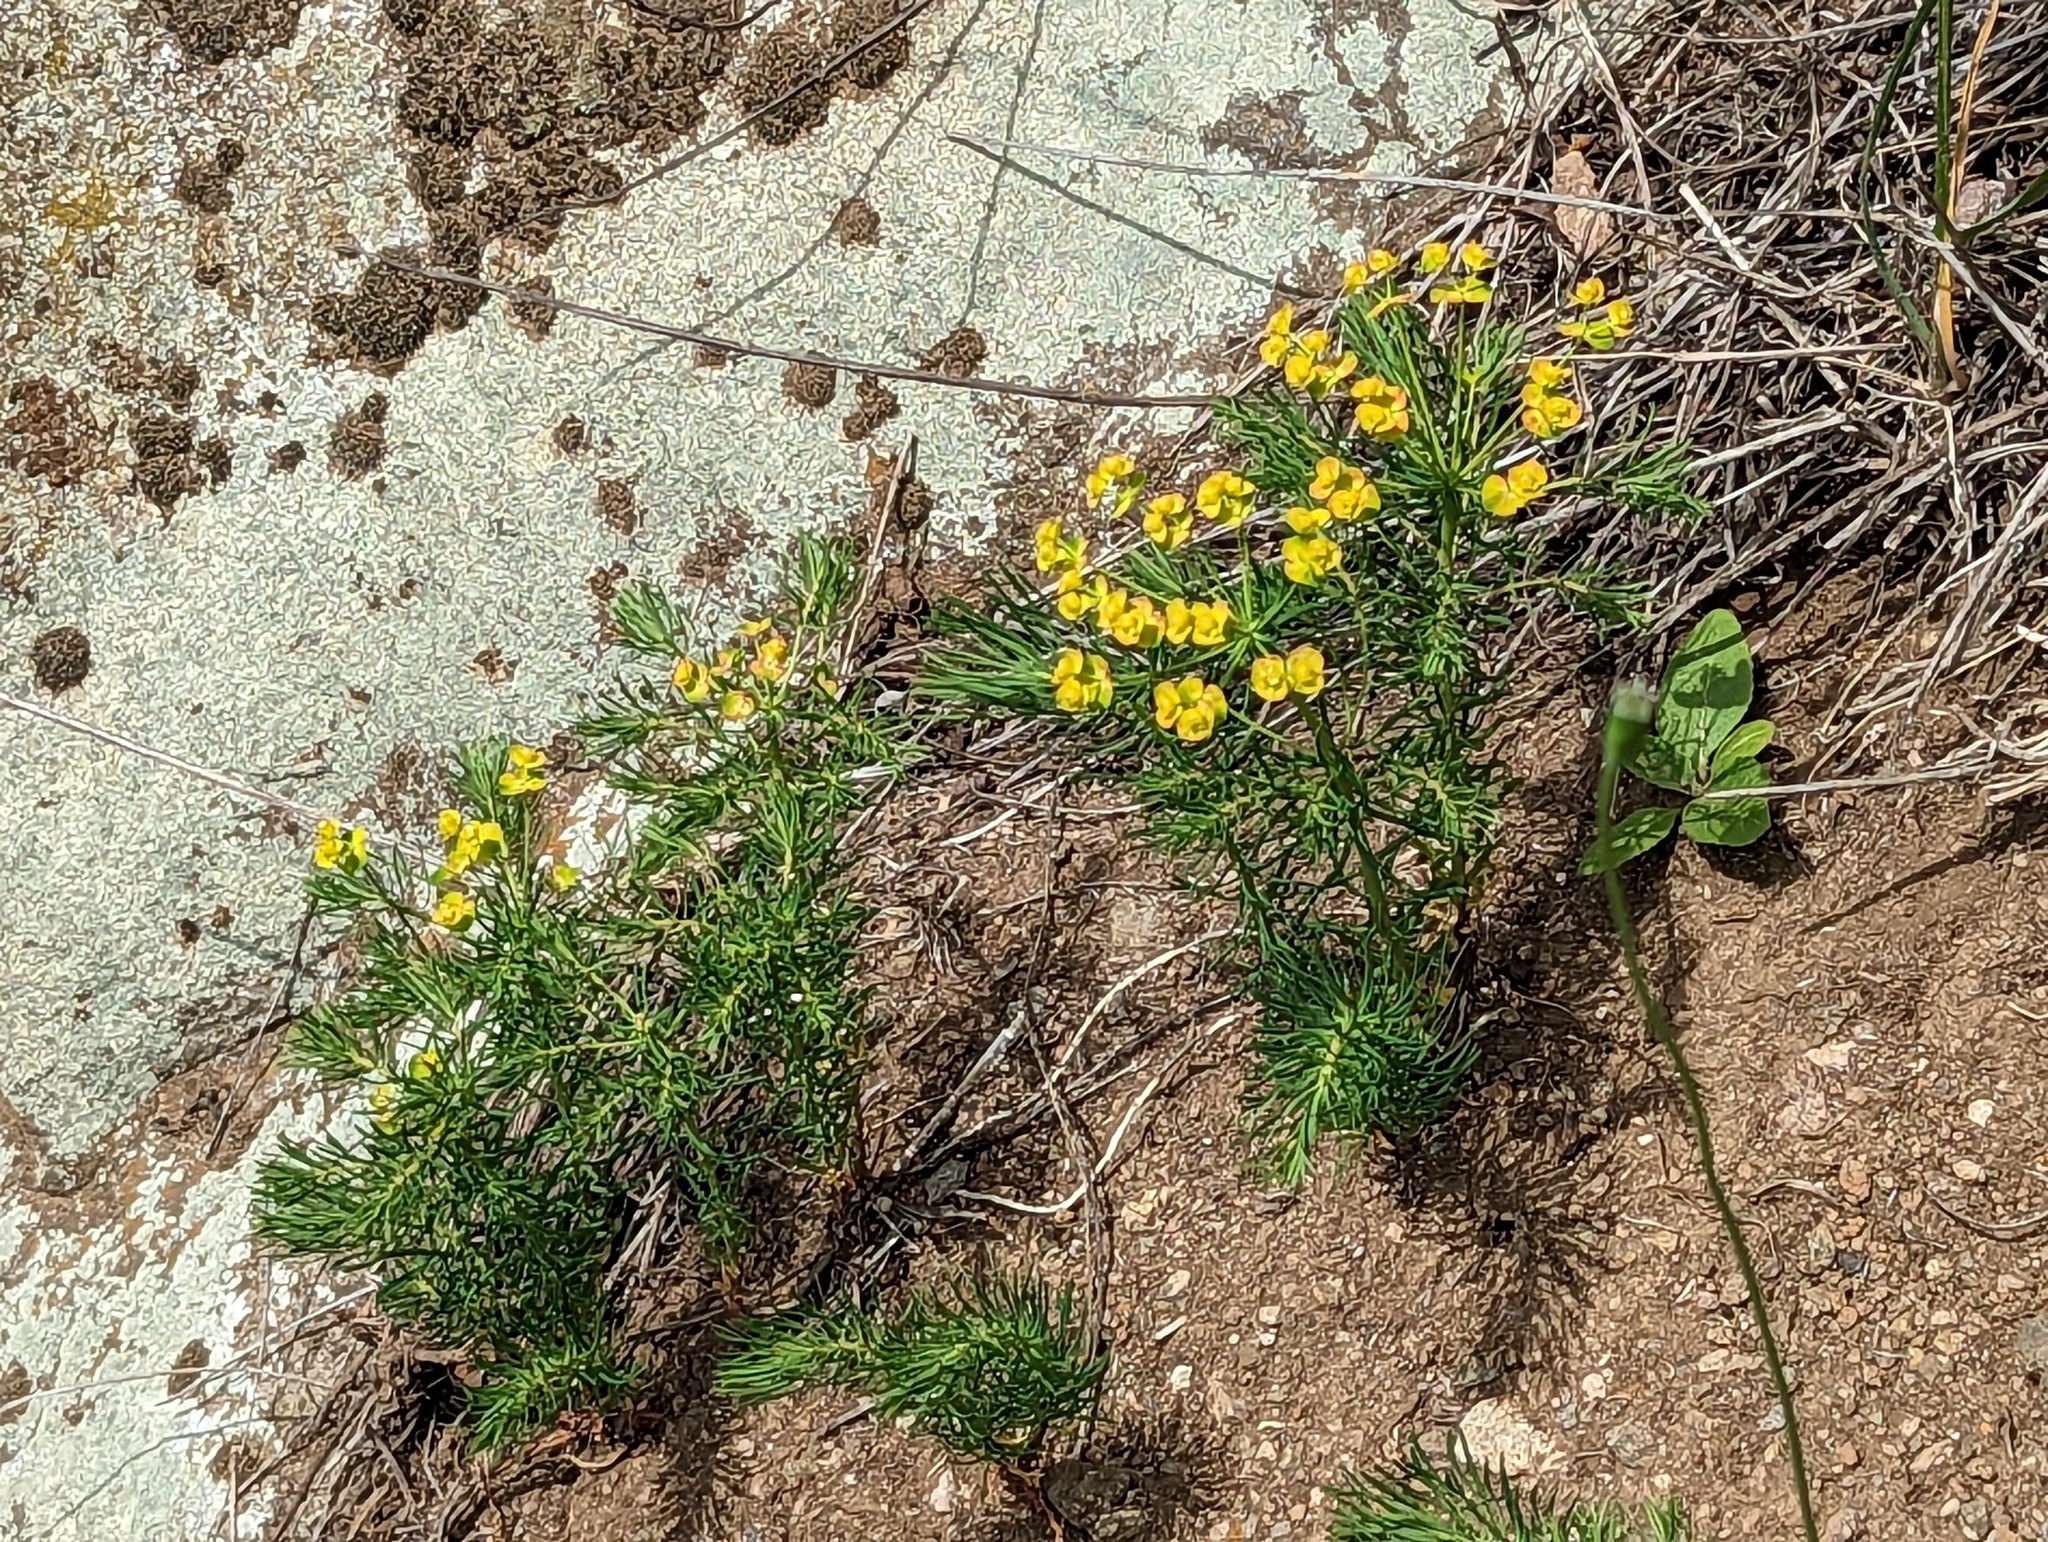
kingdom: Plantae
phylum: Tracheophyta
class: Magnoliopsida
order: Malpighiales
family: Euphorbiaceae
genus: Euphorbia
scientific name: Euphorbia cyparissias
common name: Cypress spurge
